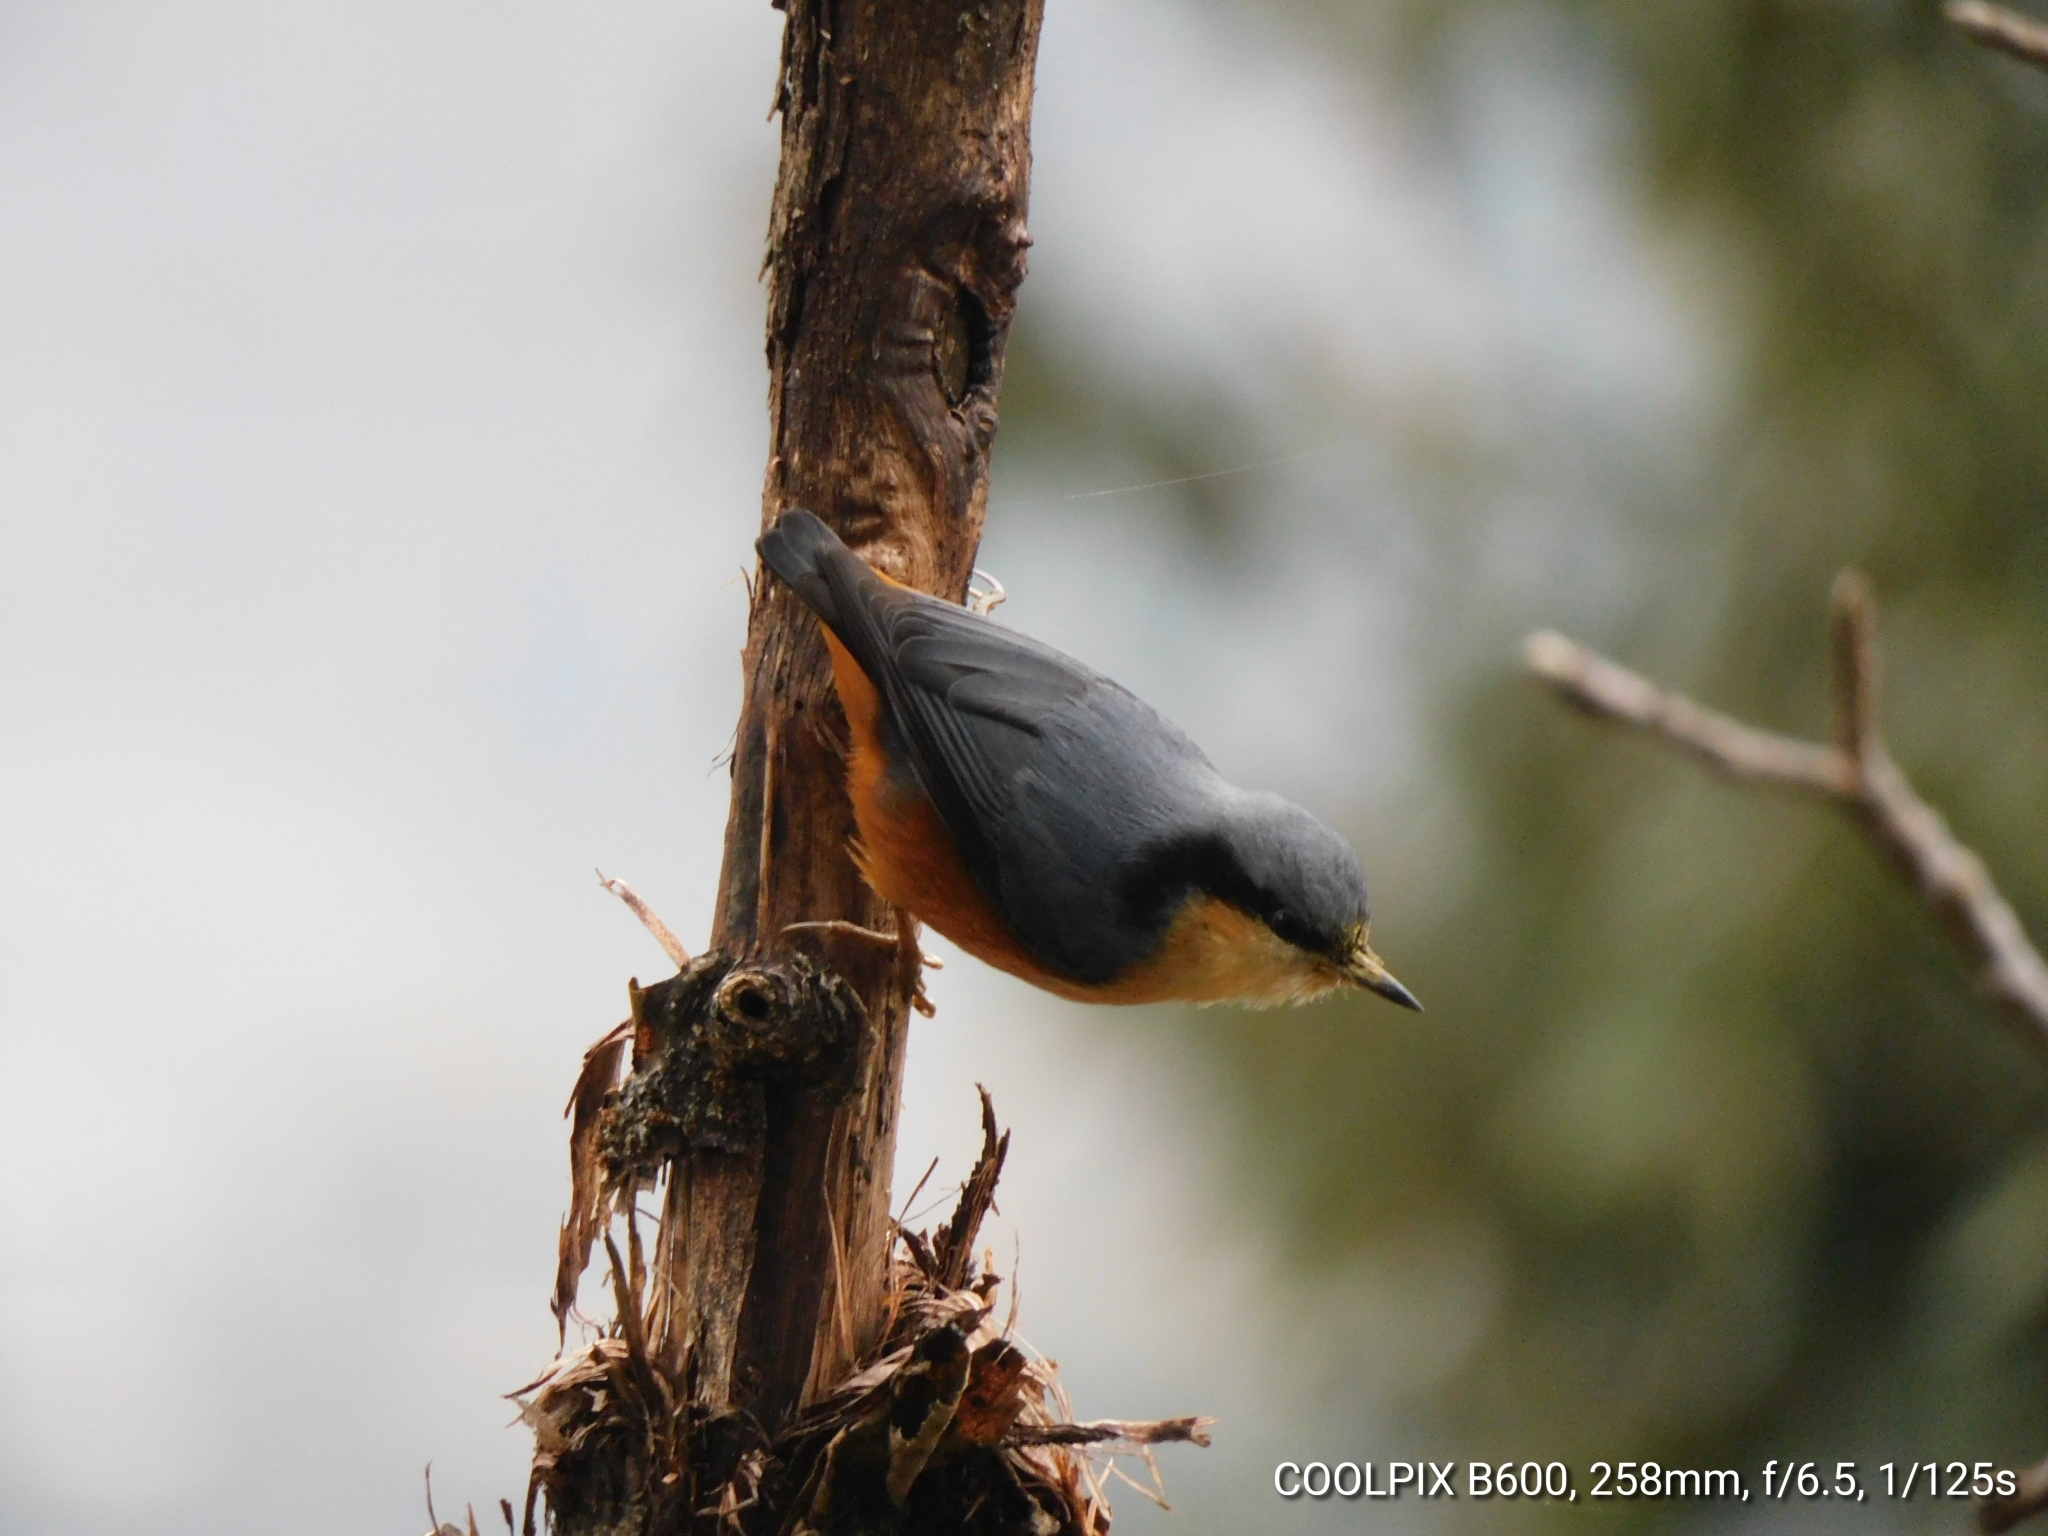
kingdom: Animalia
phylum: Chordata
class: Aves
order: Passeriformes
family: Sittidae
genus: Sitta
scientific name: Sitta himalayensis
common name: White-tailed nuthatch
